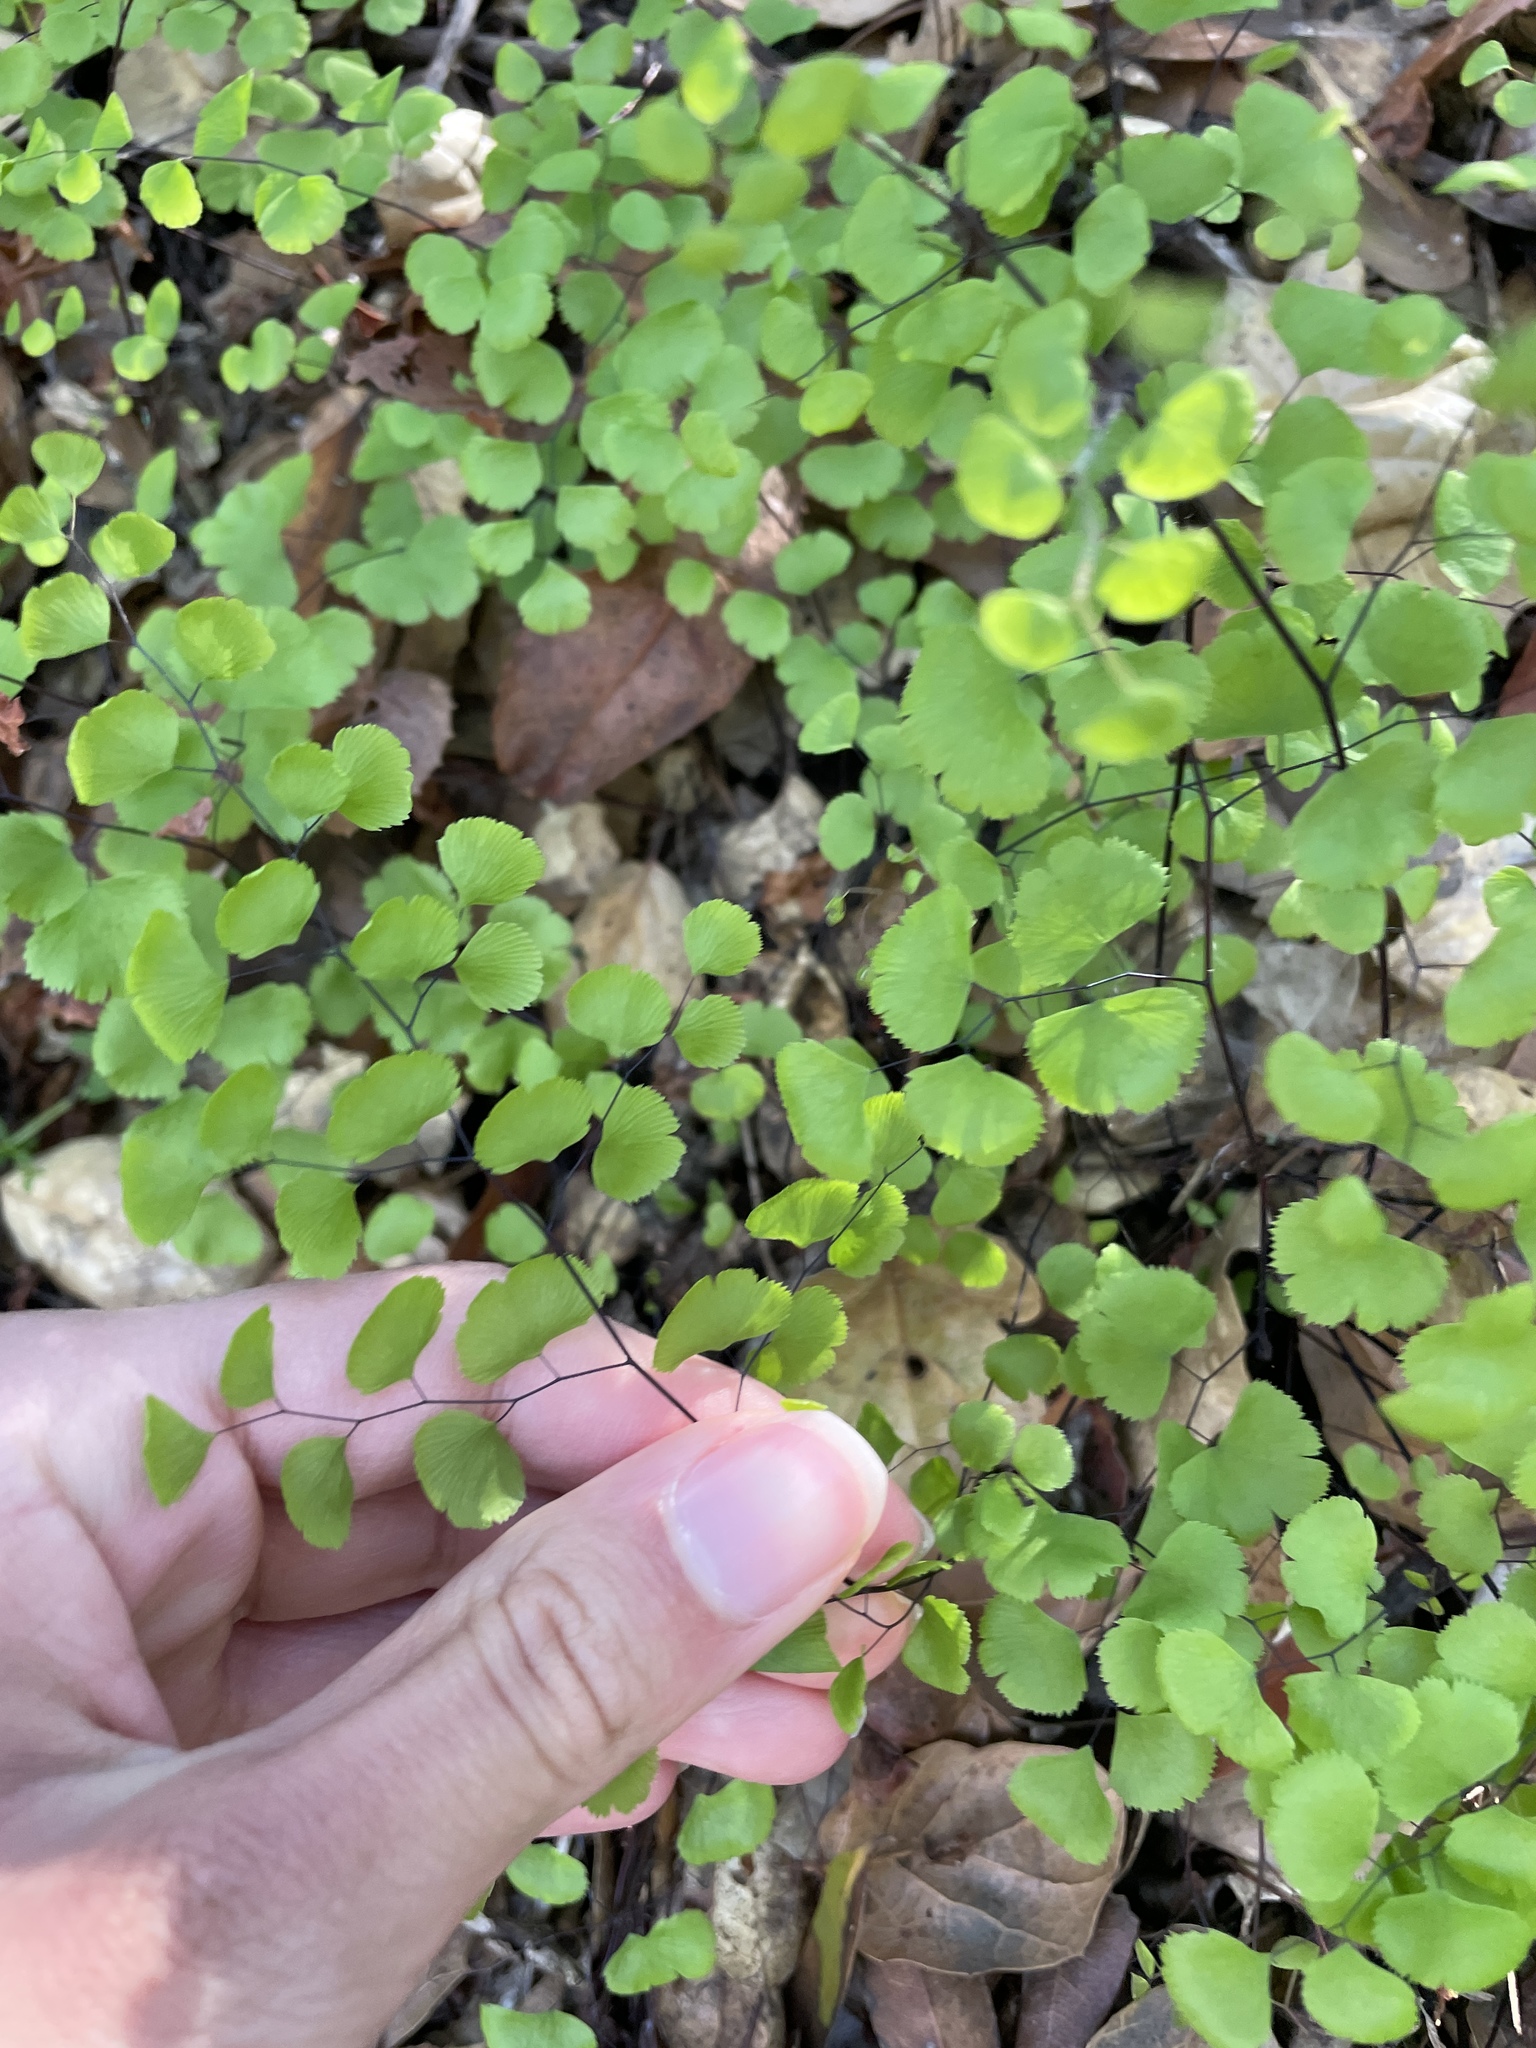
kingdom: Plantae
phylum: Tracheophyta
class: Polypodiopsida
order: Polypodiales
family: Pteridaceae
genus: Adiantum
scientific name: Adiantum jordanii
